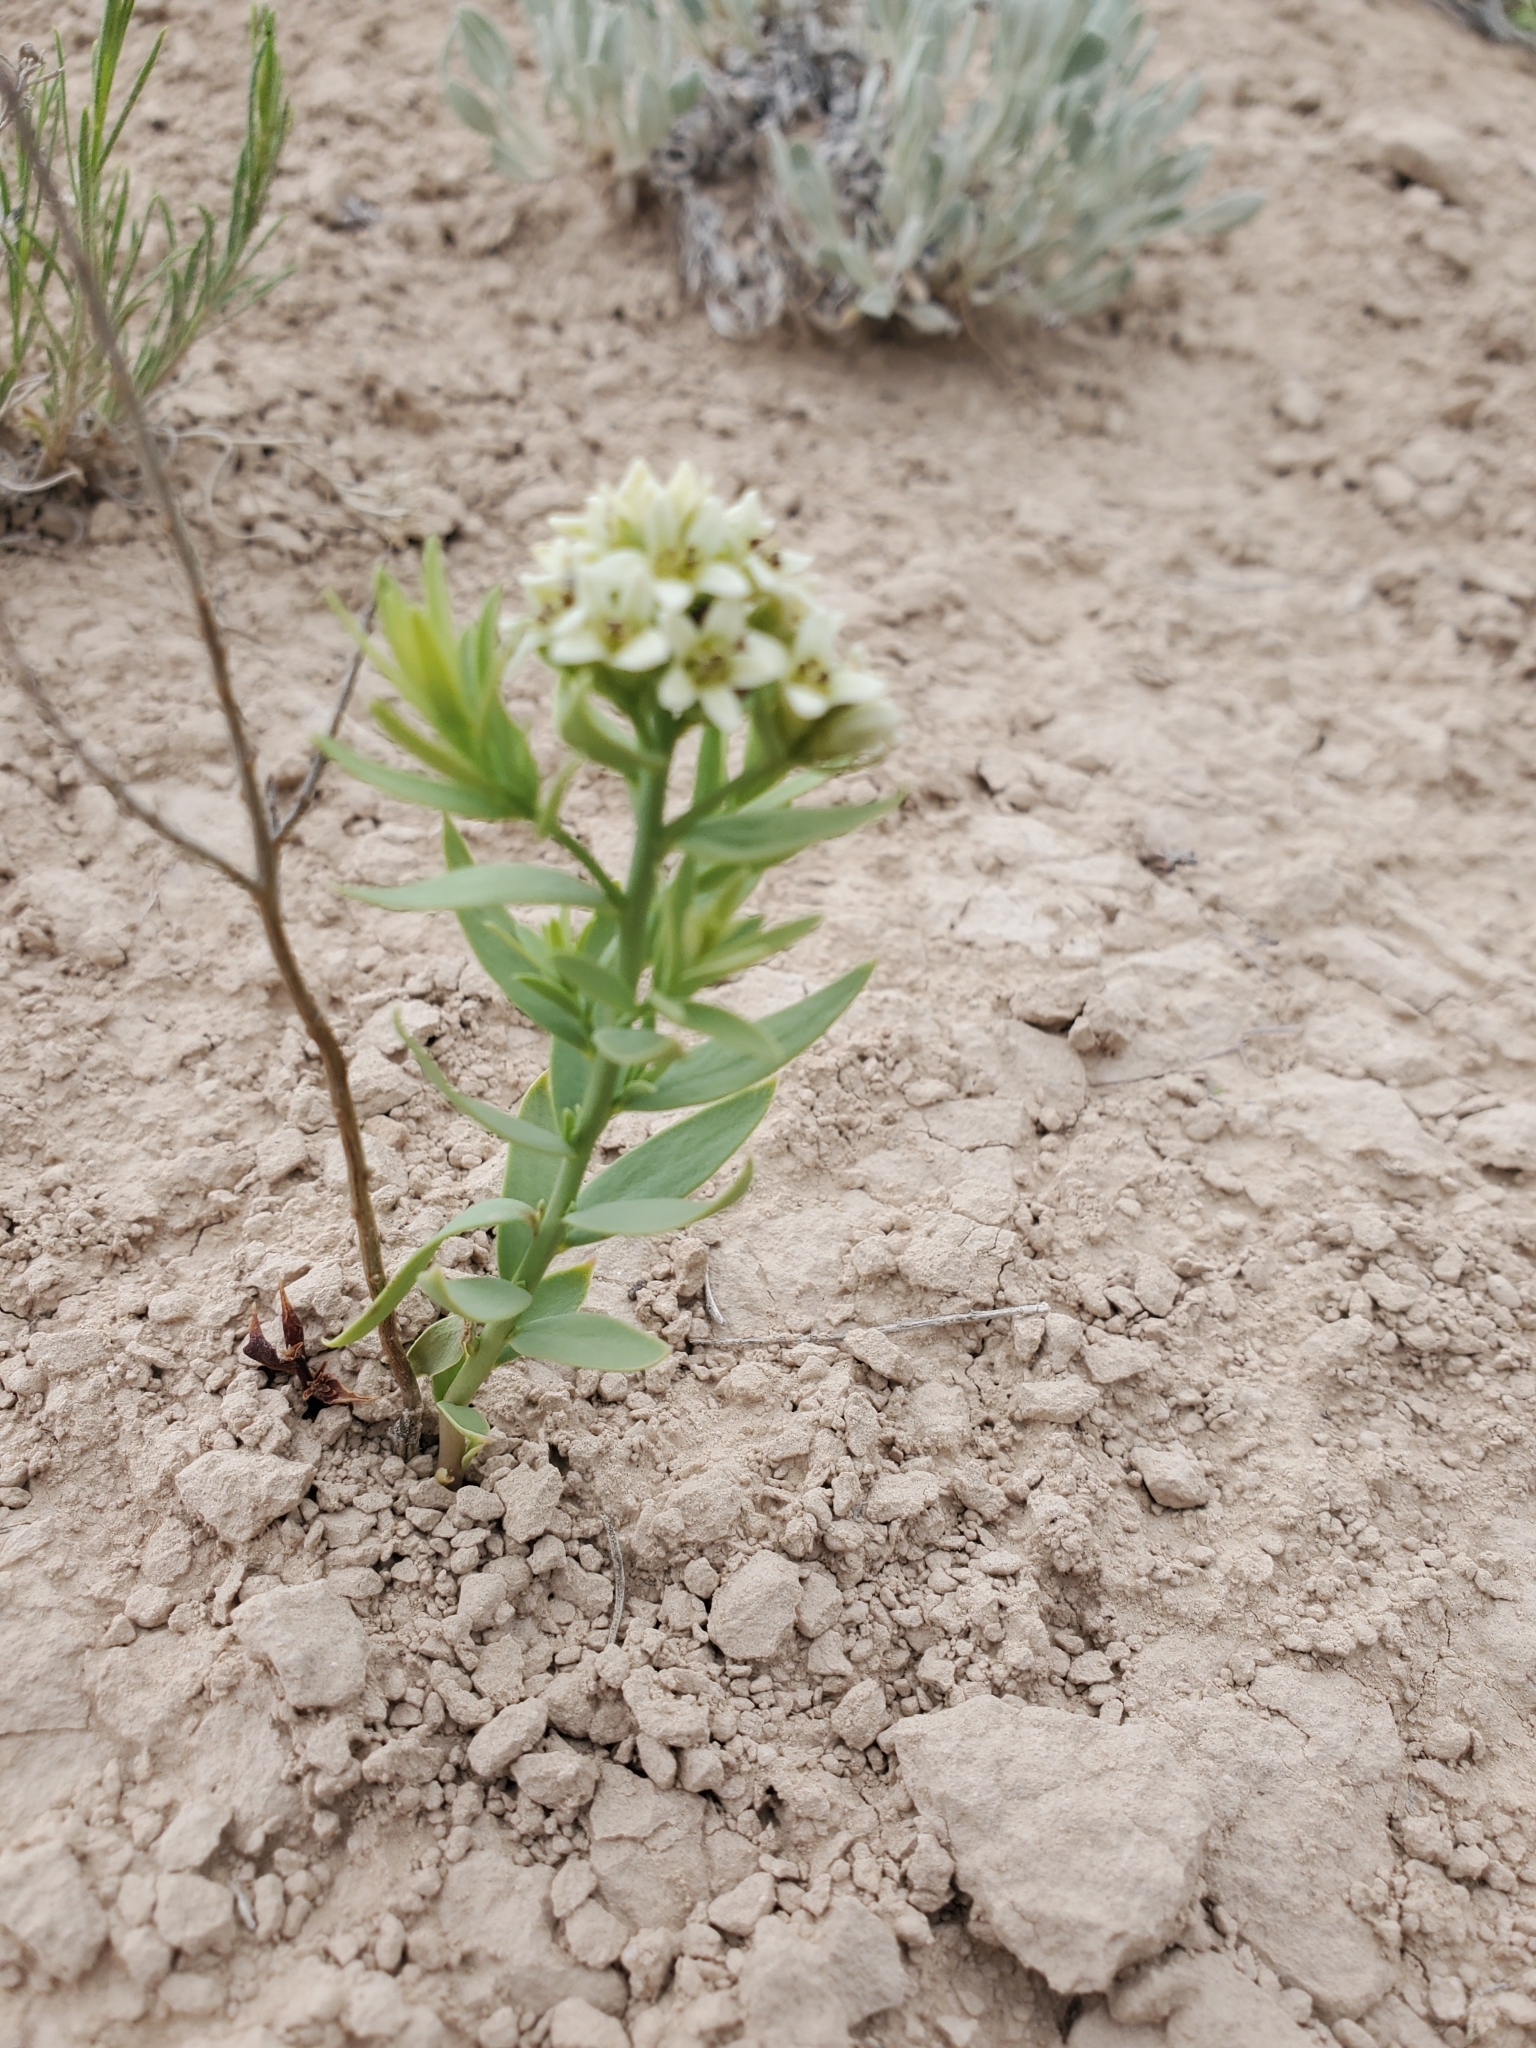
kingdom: Plantae
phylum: Tracheophyta
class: Magnoliopsida
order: Santalales
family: Comandraceae
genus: Comandra
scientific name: Comandra umbellata
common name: Bastard toadflax
